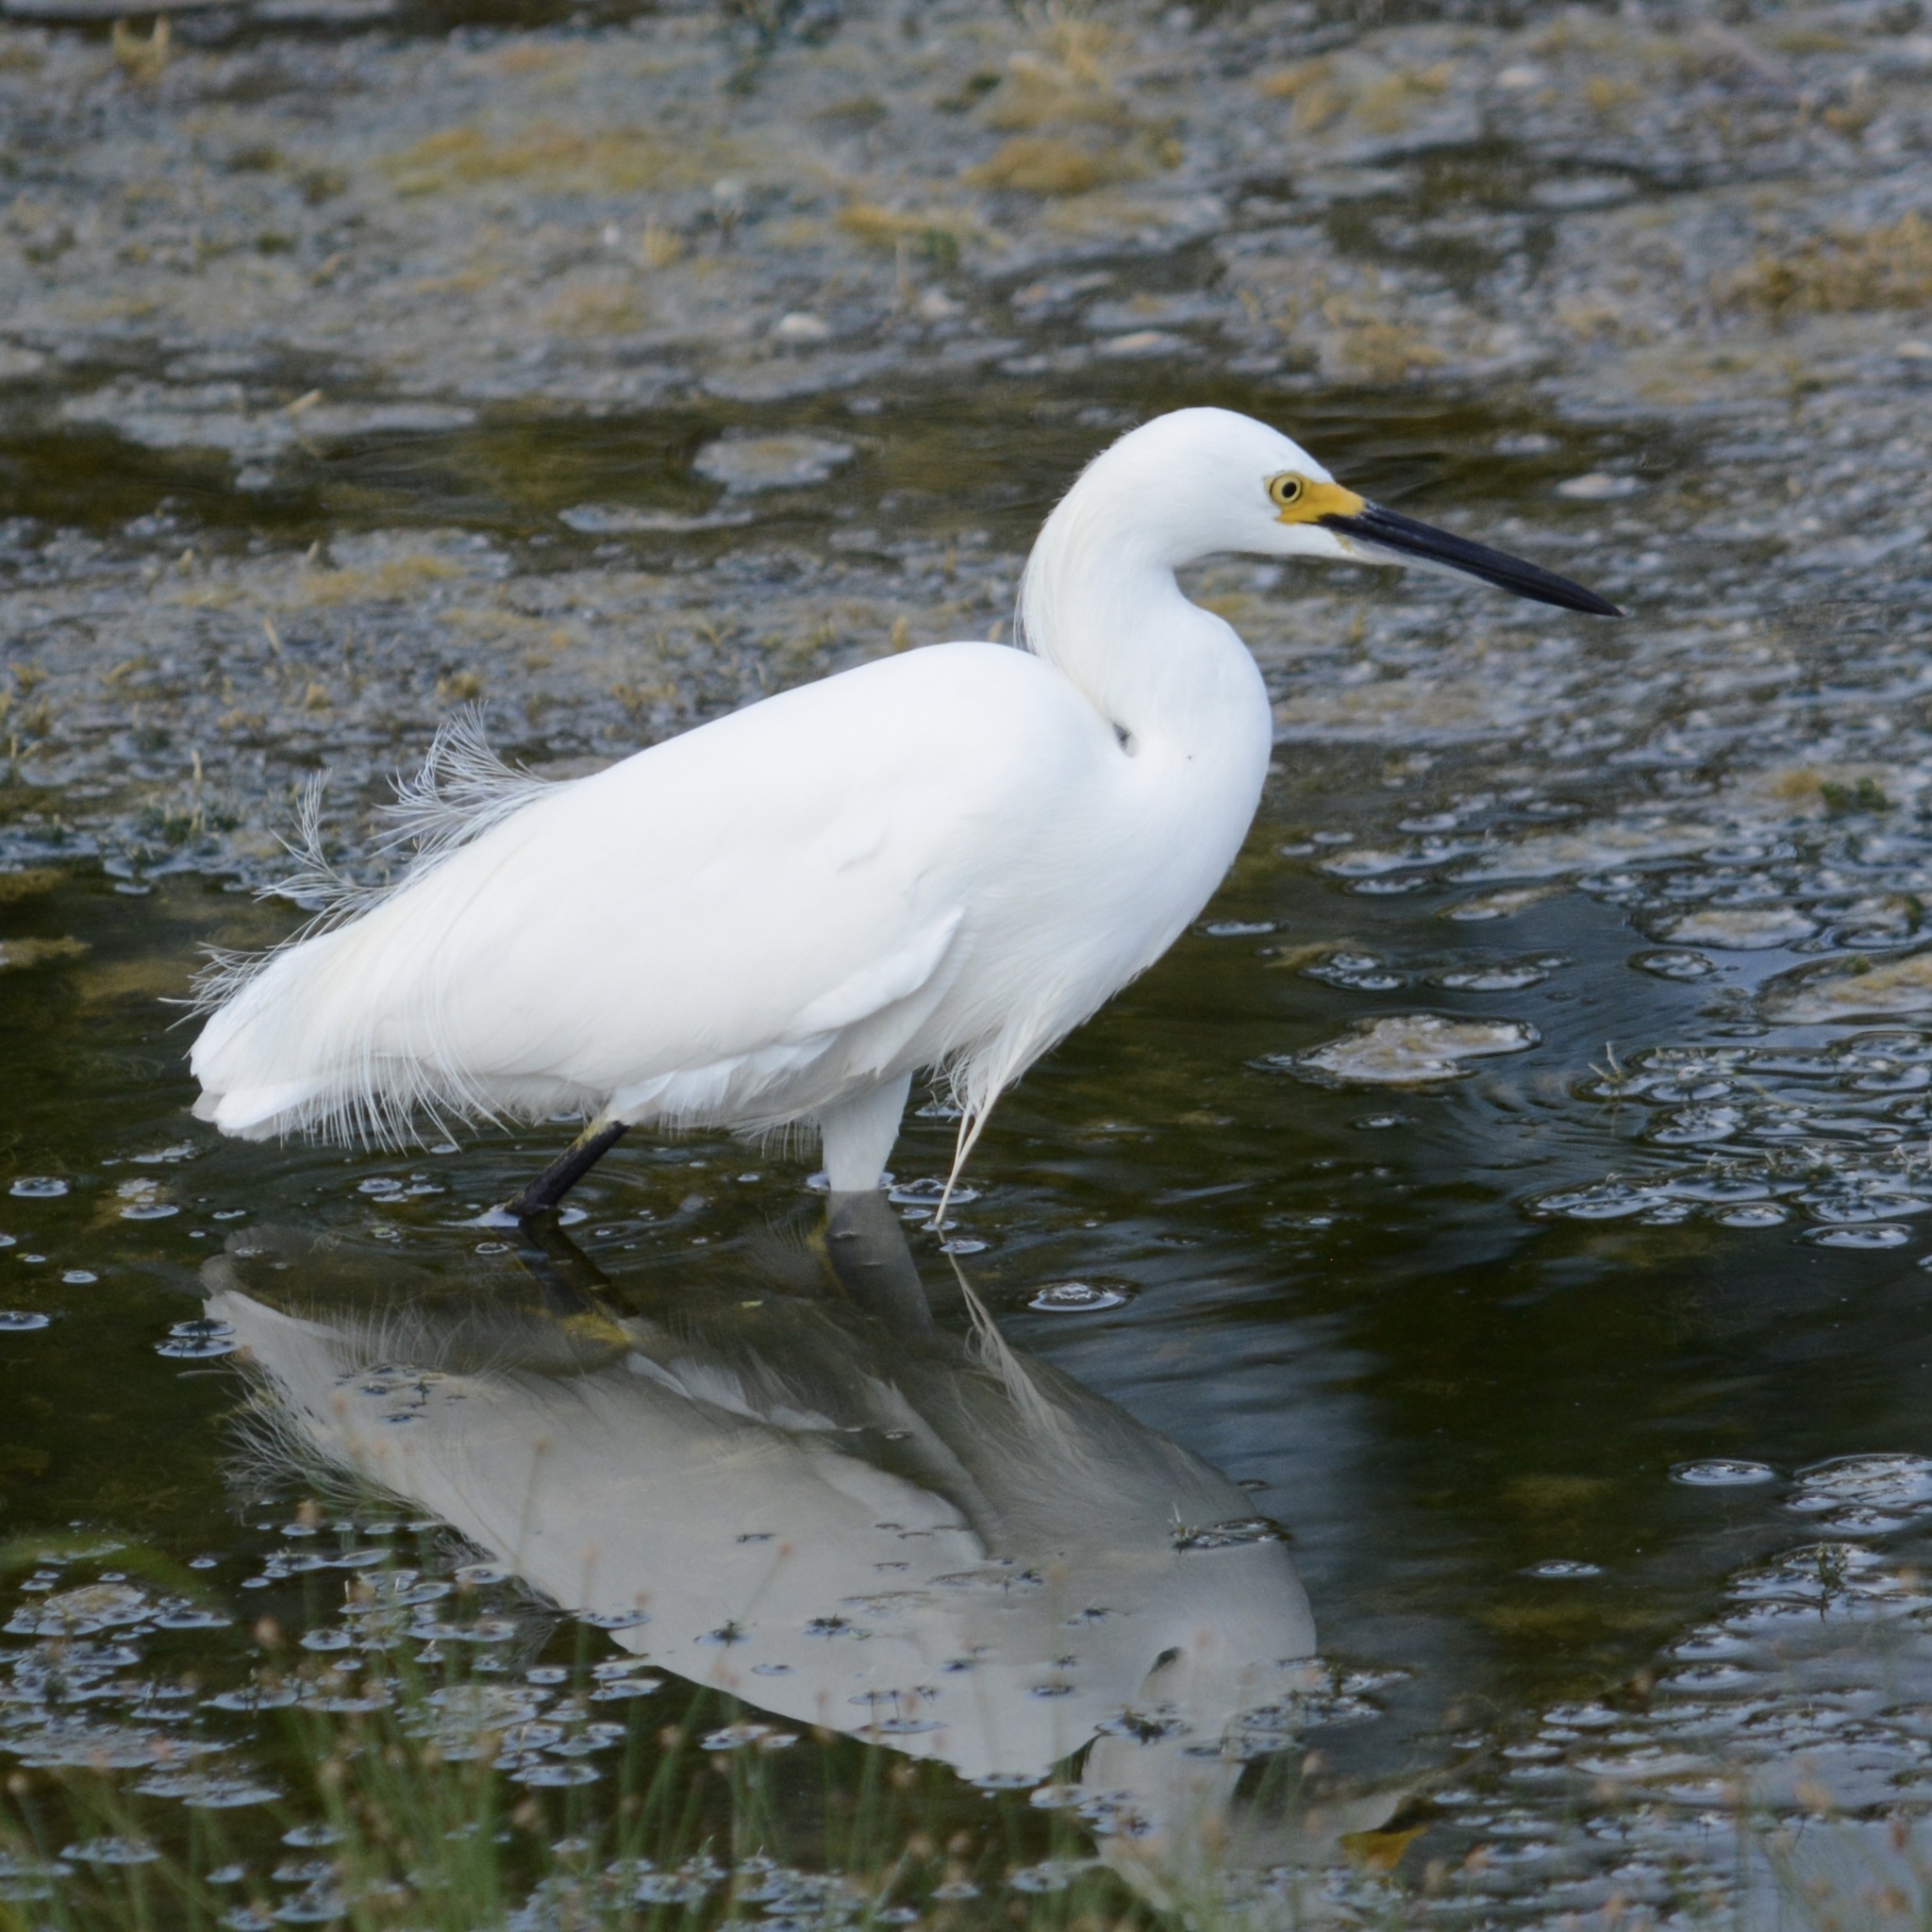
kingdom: Animalia
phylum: Chordata
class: Aves
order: Pelecaniformes
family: Ardeidae
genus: Egretta
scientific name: Egretta thula
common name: Snowy egret
